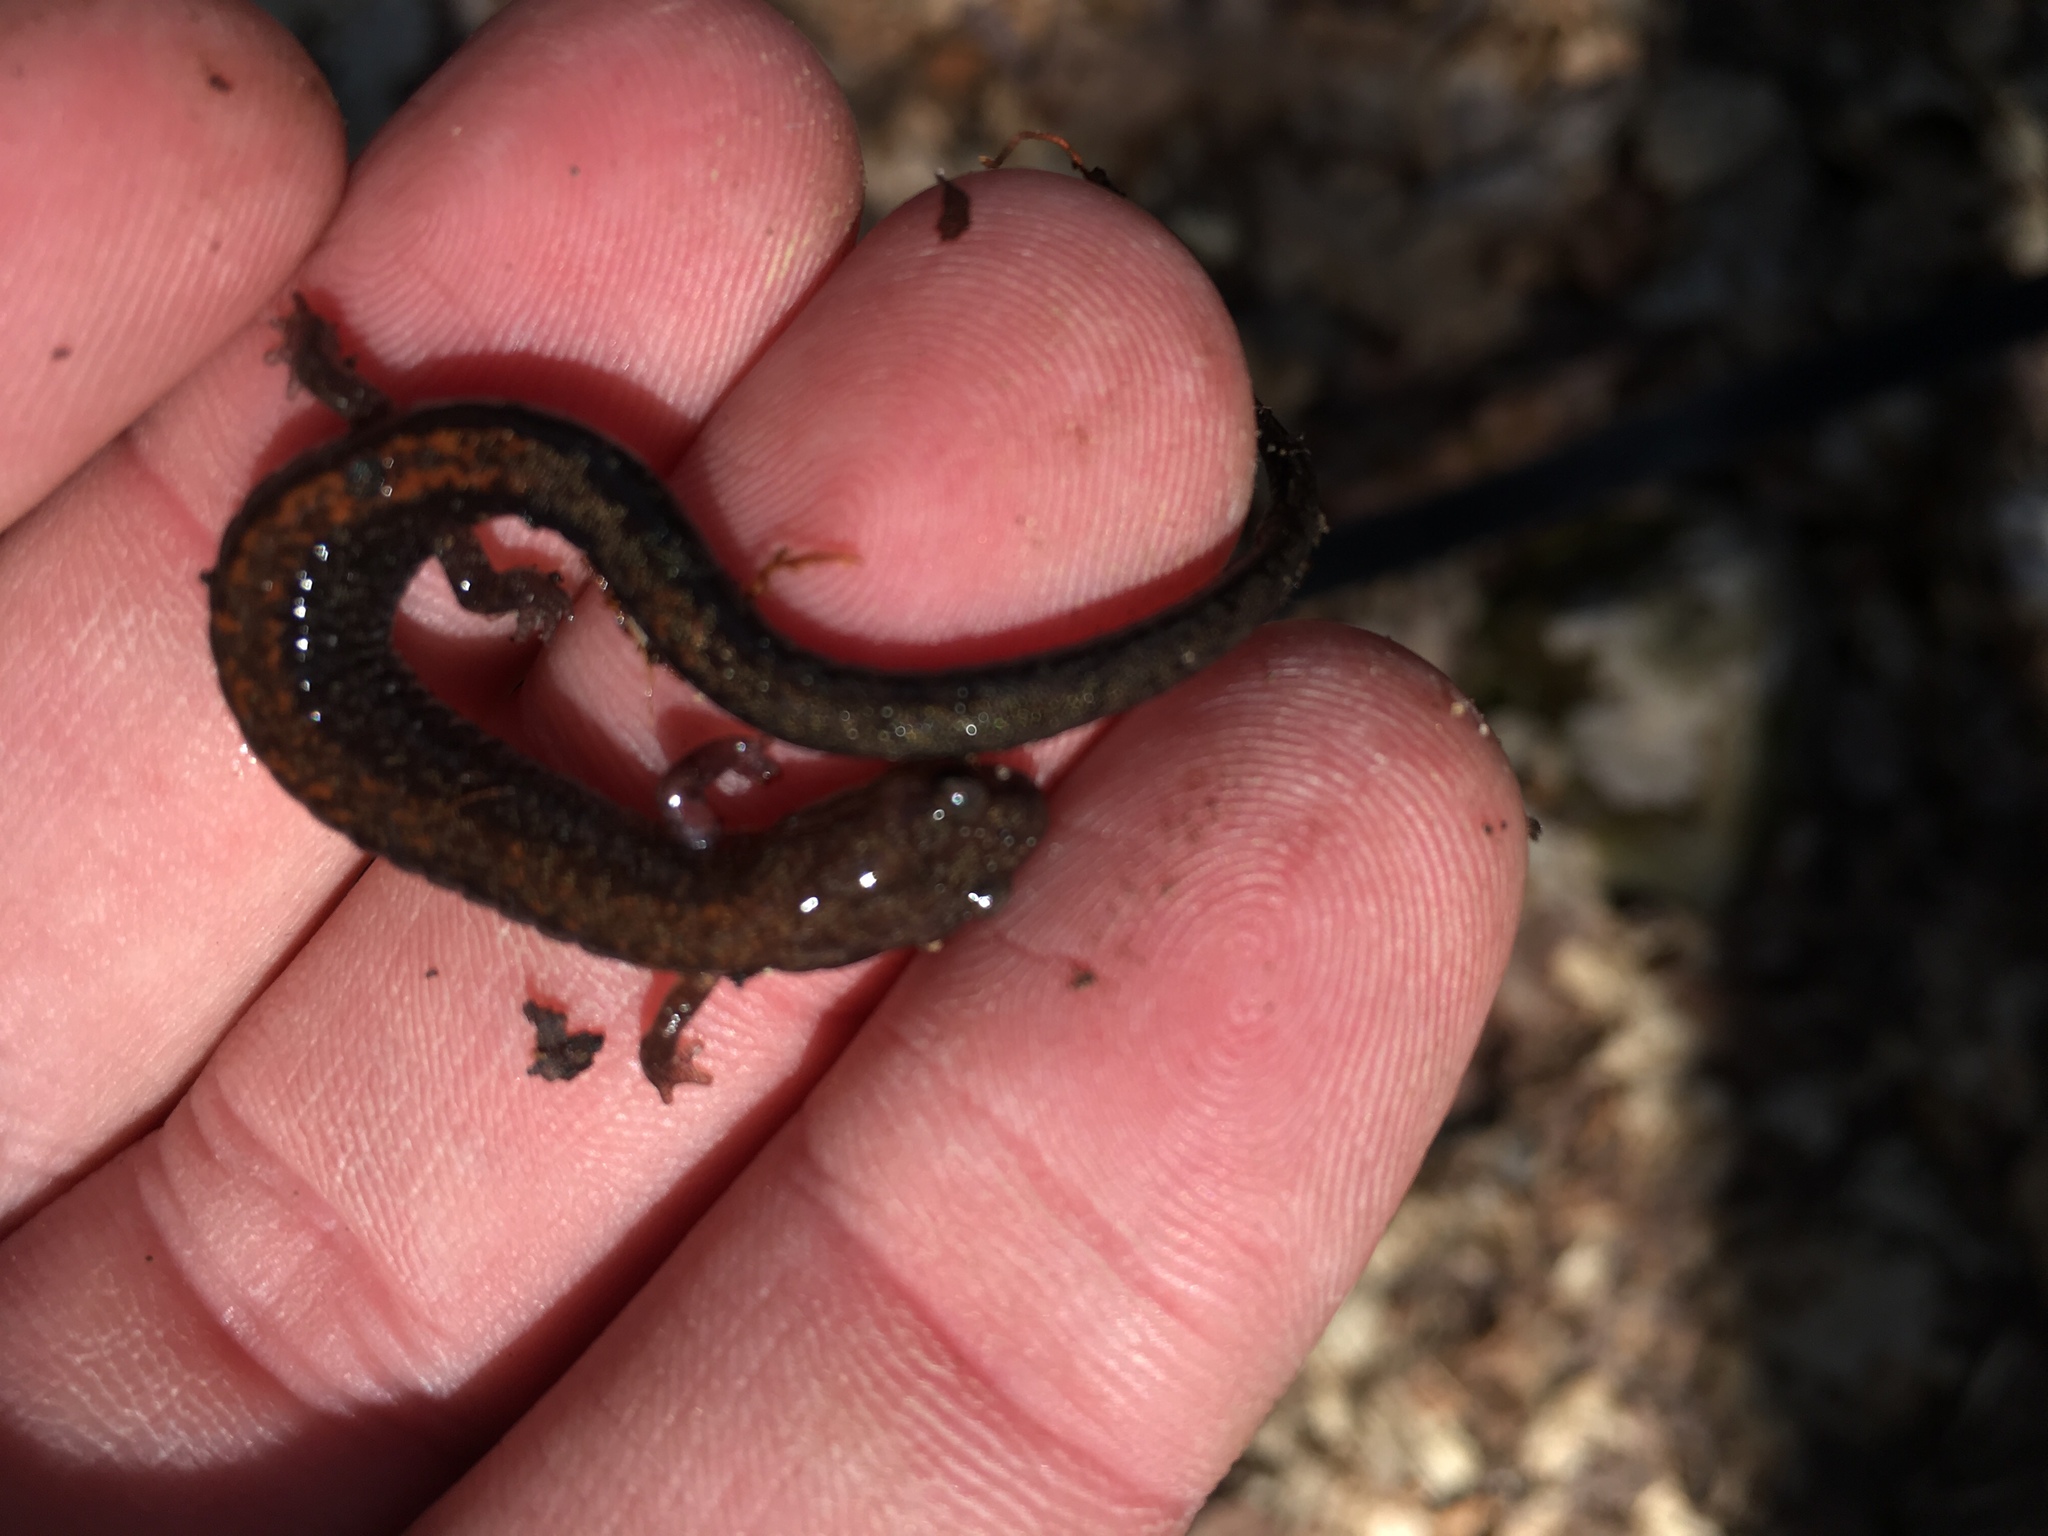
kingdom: Animalia
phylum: Chordata
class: Amphibia
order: Caudata
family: Plethodontidae
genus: Plethodon
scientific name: Plethodon cinereus
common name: Redback salamander
